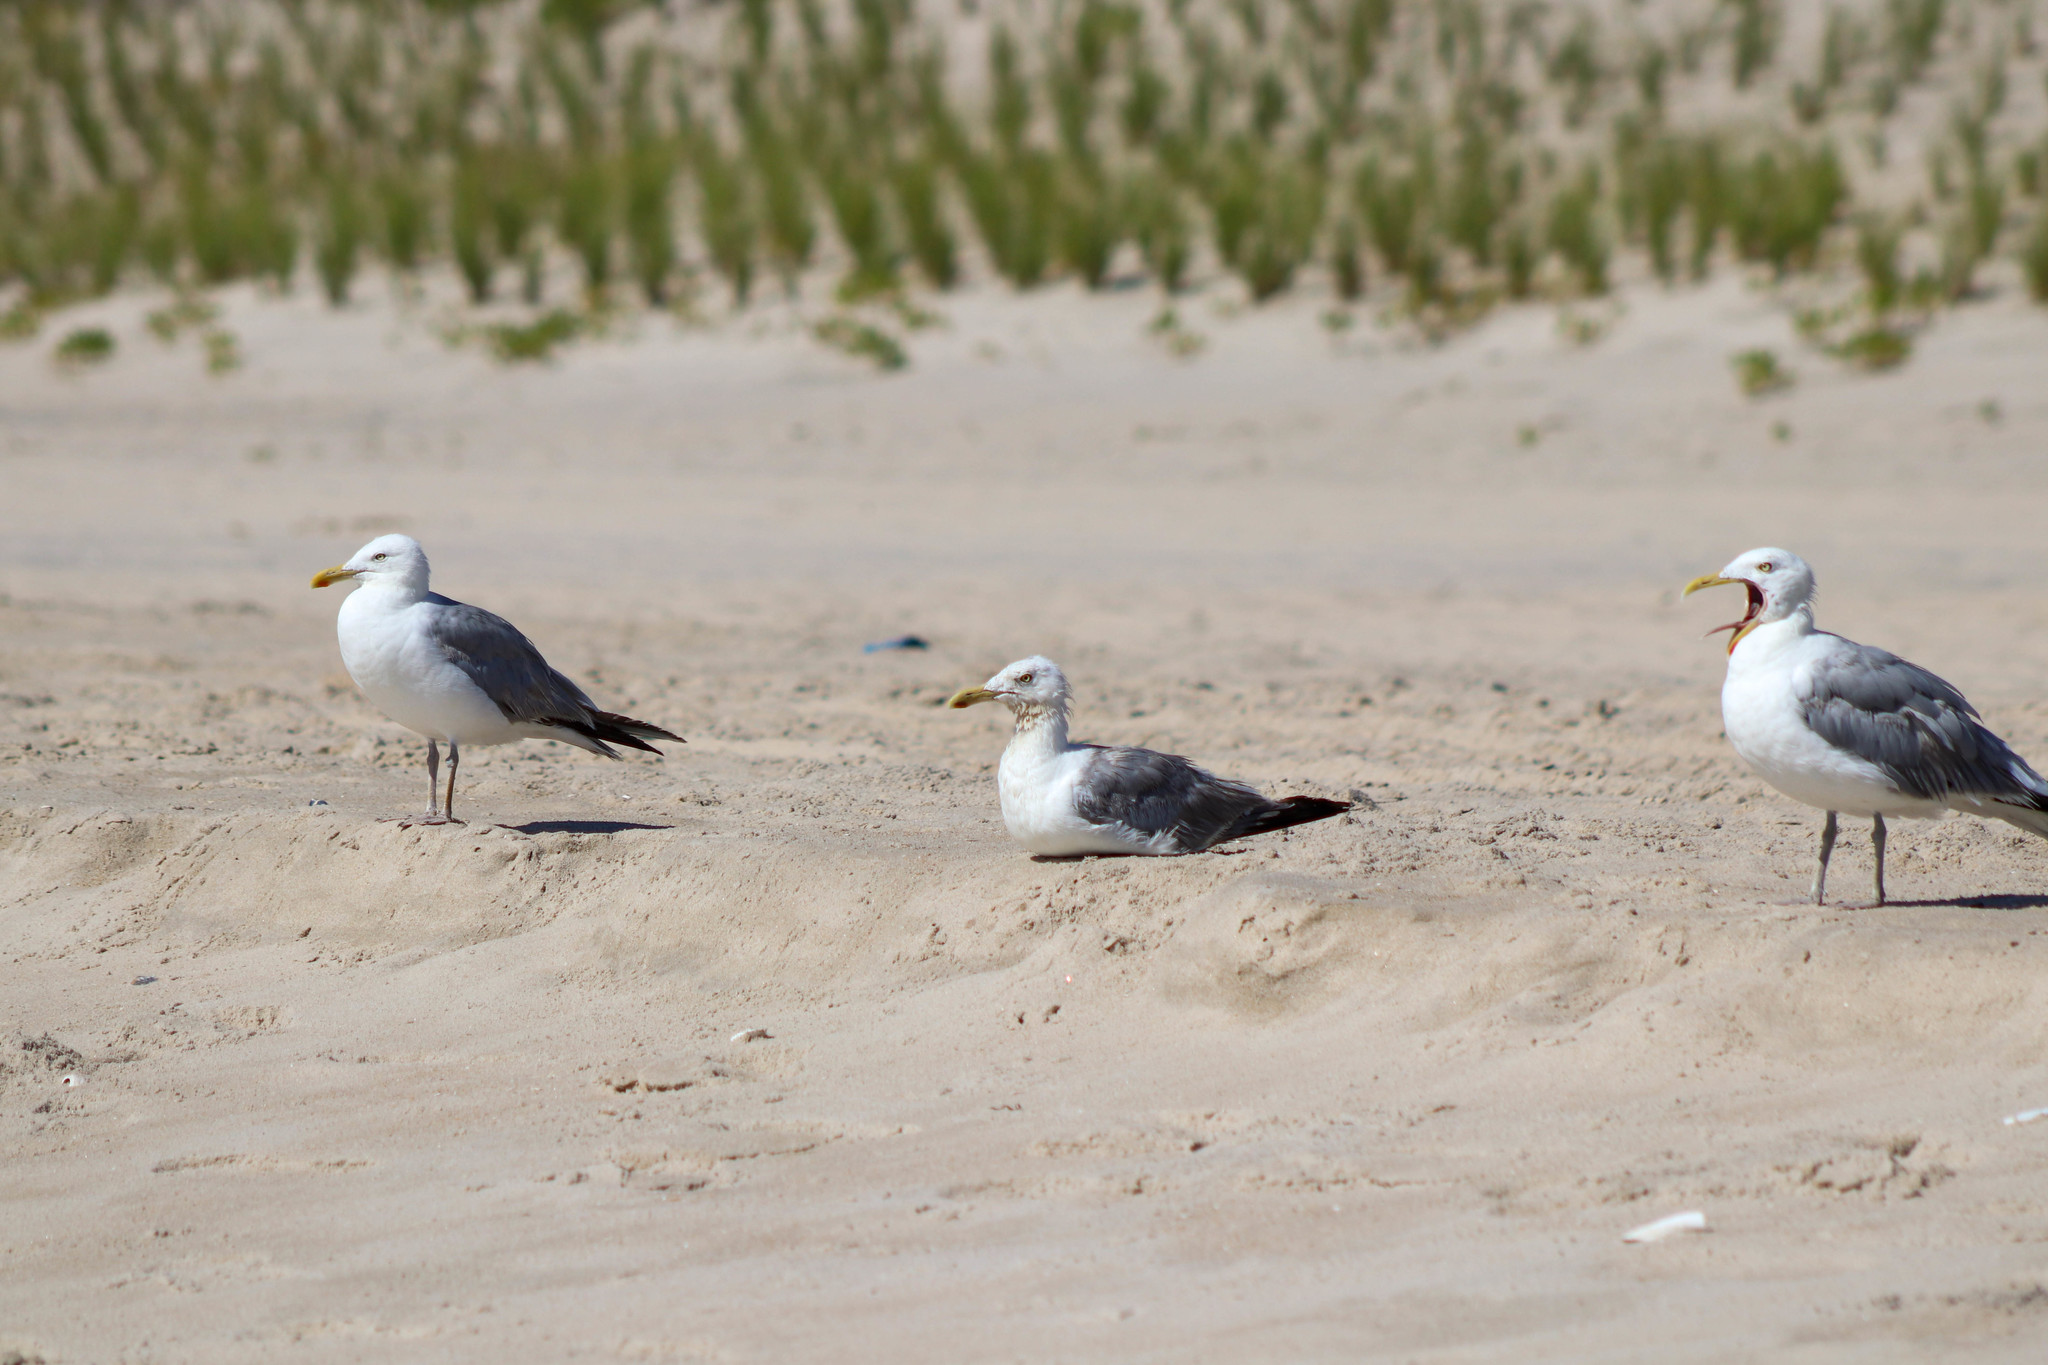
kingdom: Animalia
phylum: Chordata
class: Aves
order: Charadriiformes
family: Laridae
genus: Larus
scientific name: Larus argentatus
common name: Herring gull
